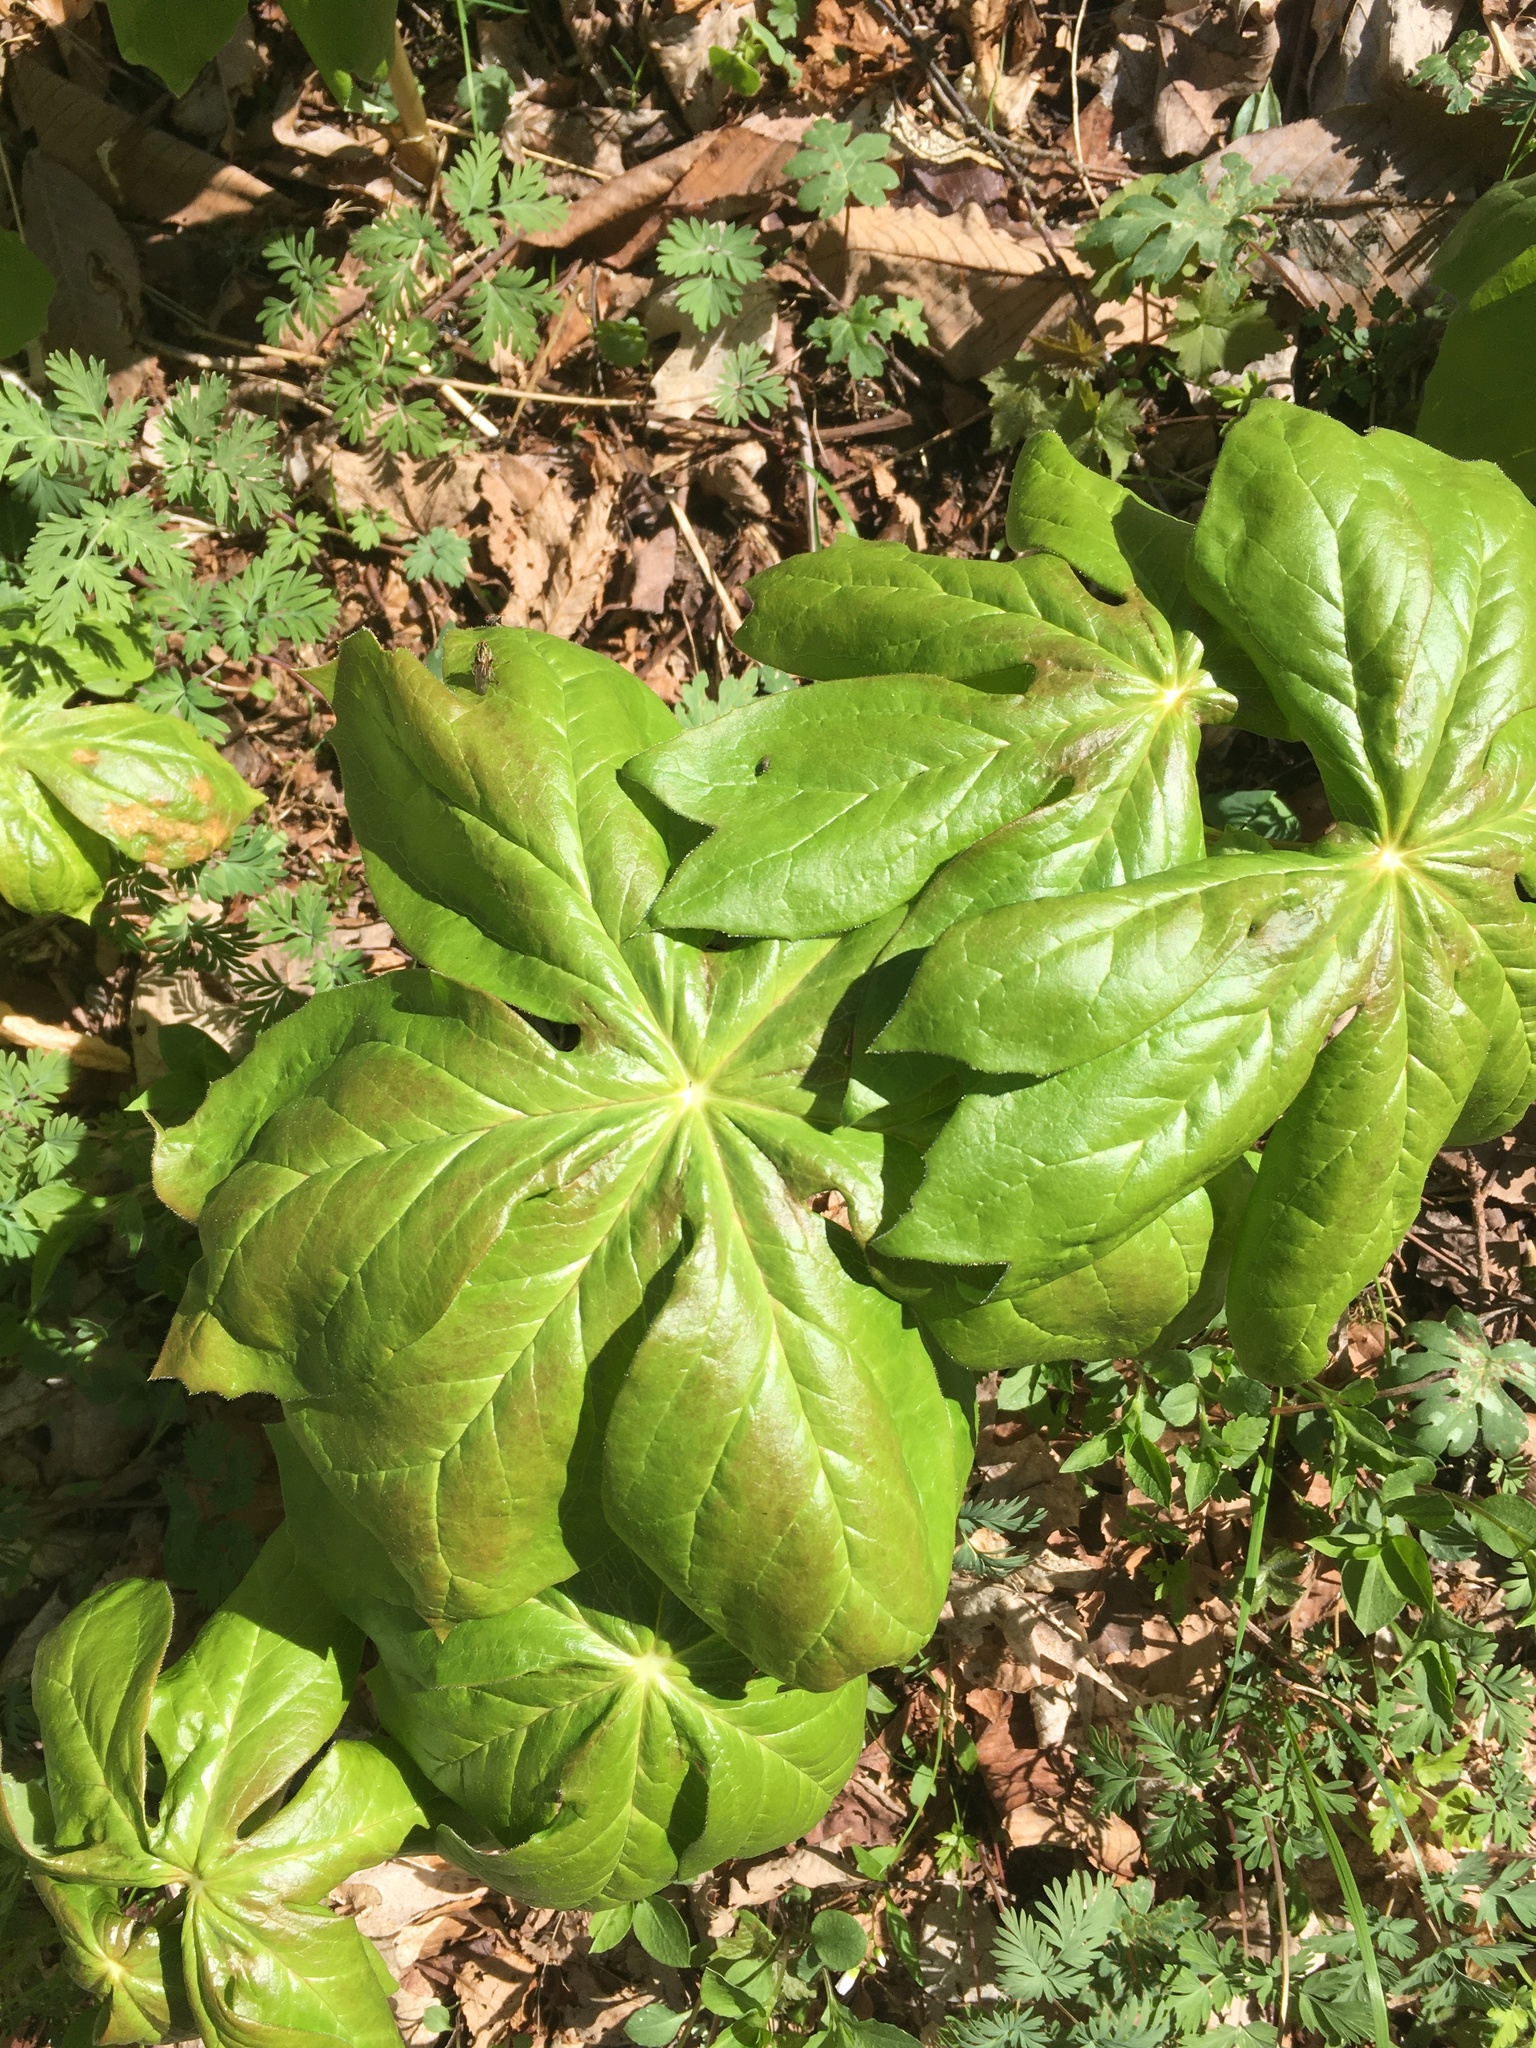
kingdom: Plantae
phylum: Tracheophyta
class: Magnoliopsida
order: Ranunculales
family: Berberidaceae
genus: Podophyllum
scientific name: Podophyllum peltatum
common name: Wild mandrake
